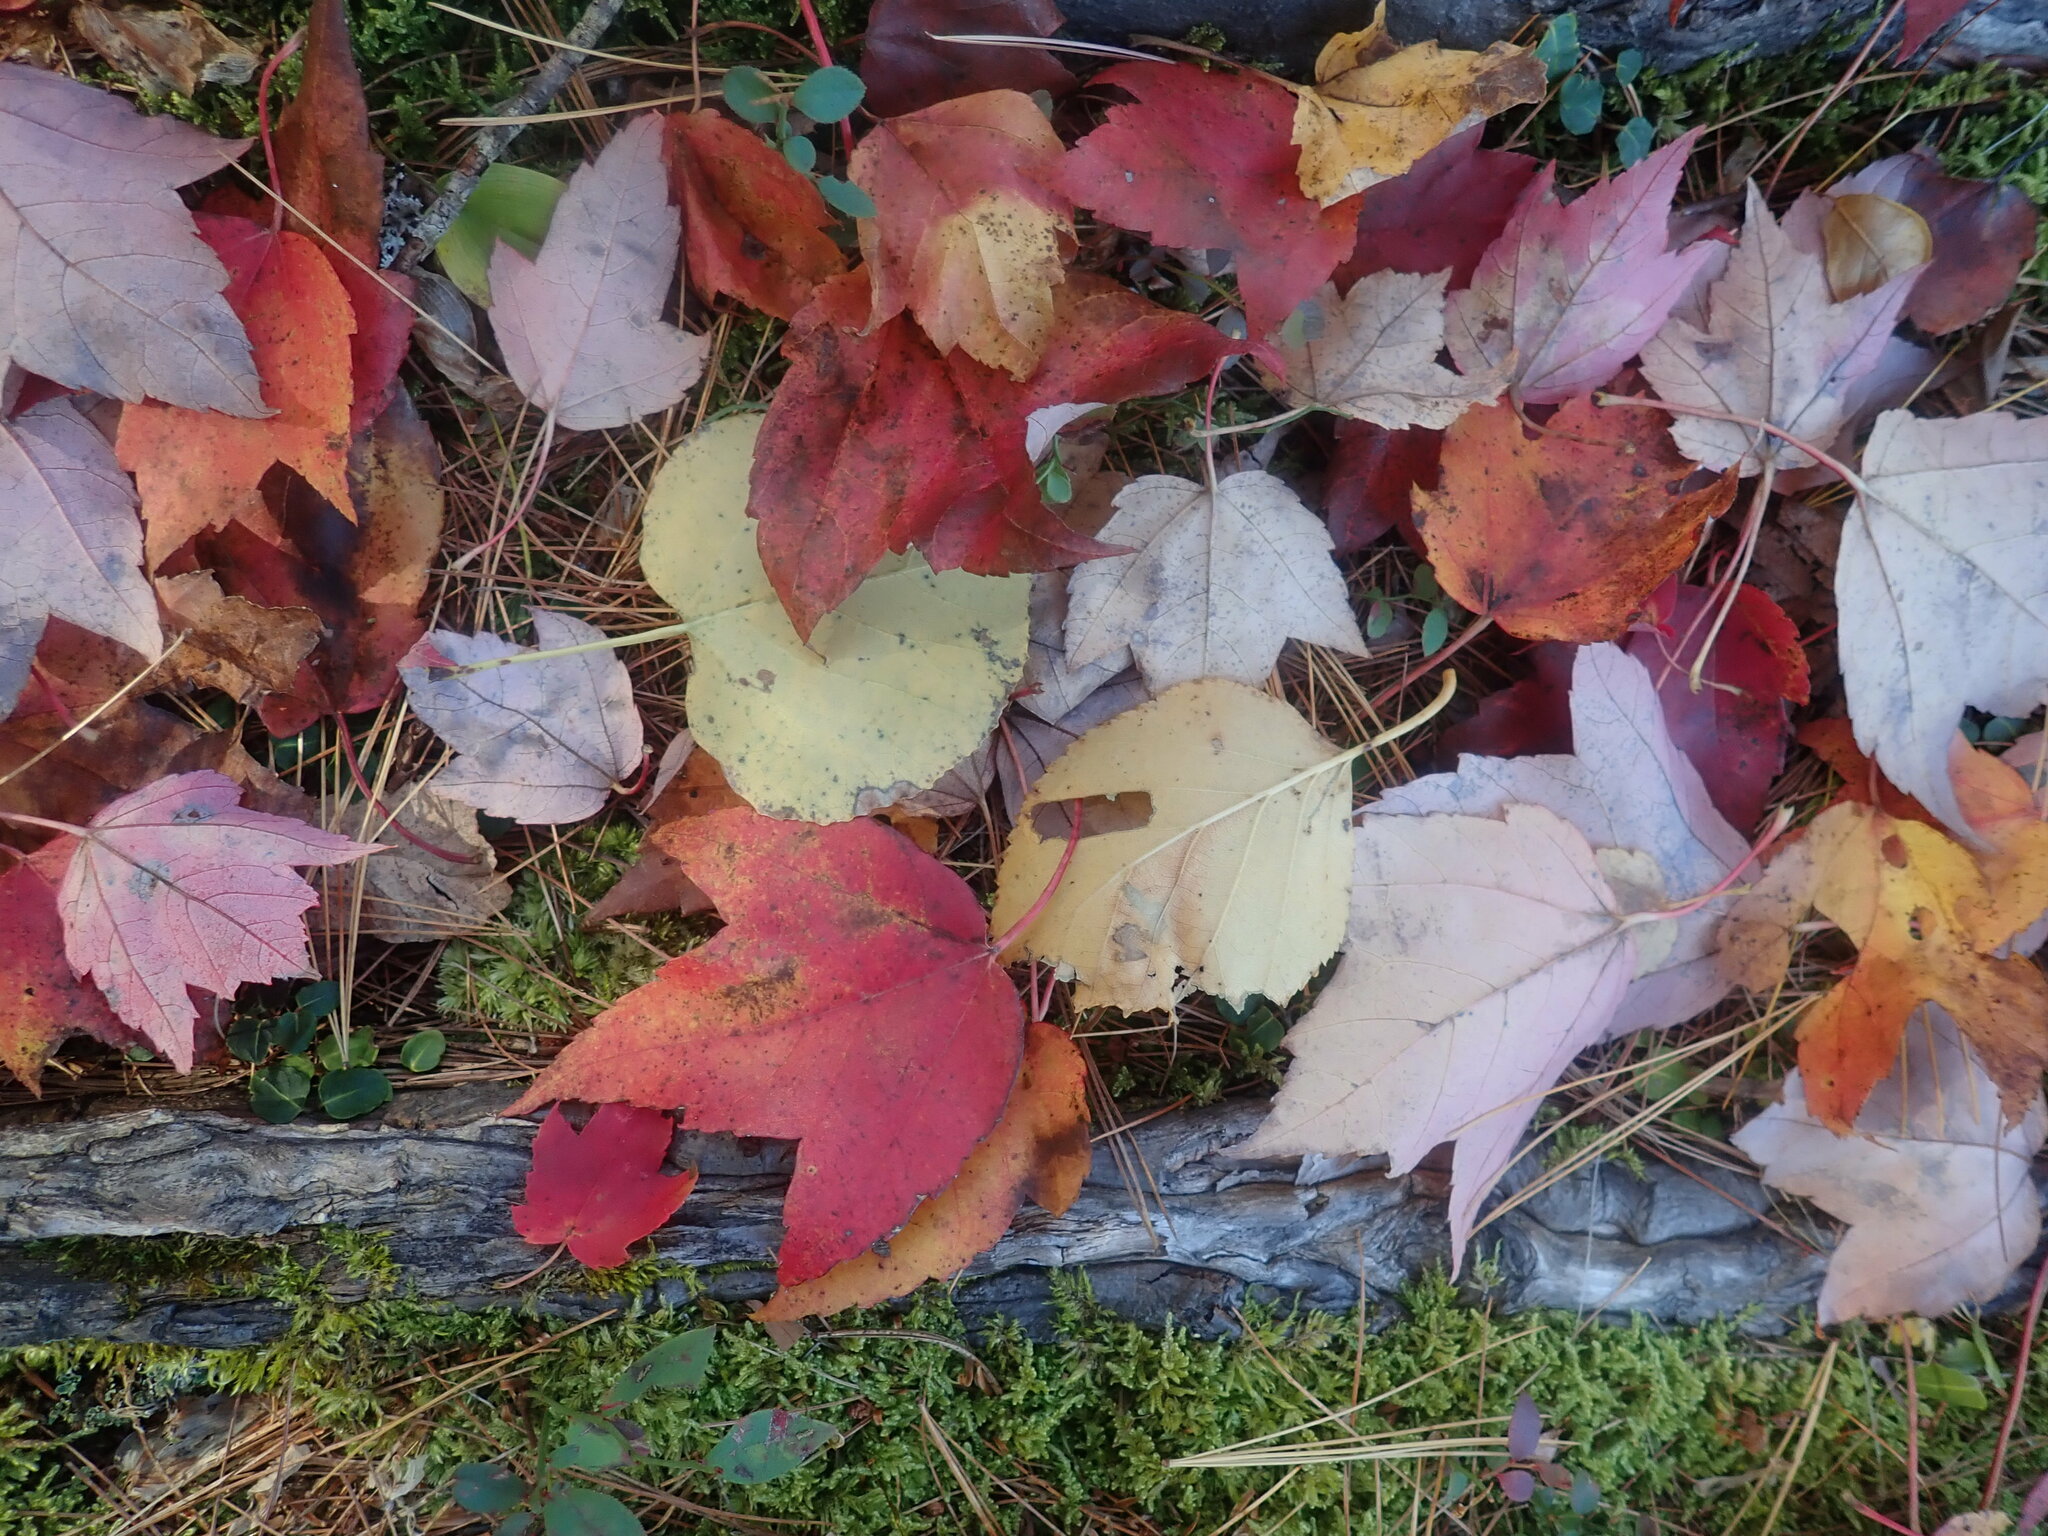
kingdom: Plantae
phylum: Tracheophyta
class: Magnoliopsida
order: Sapindales
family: Sapindaceae
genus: Acer
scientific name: Acer rubrum
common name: Red maple
